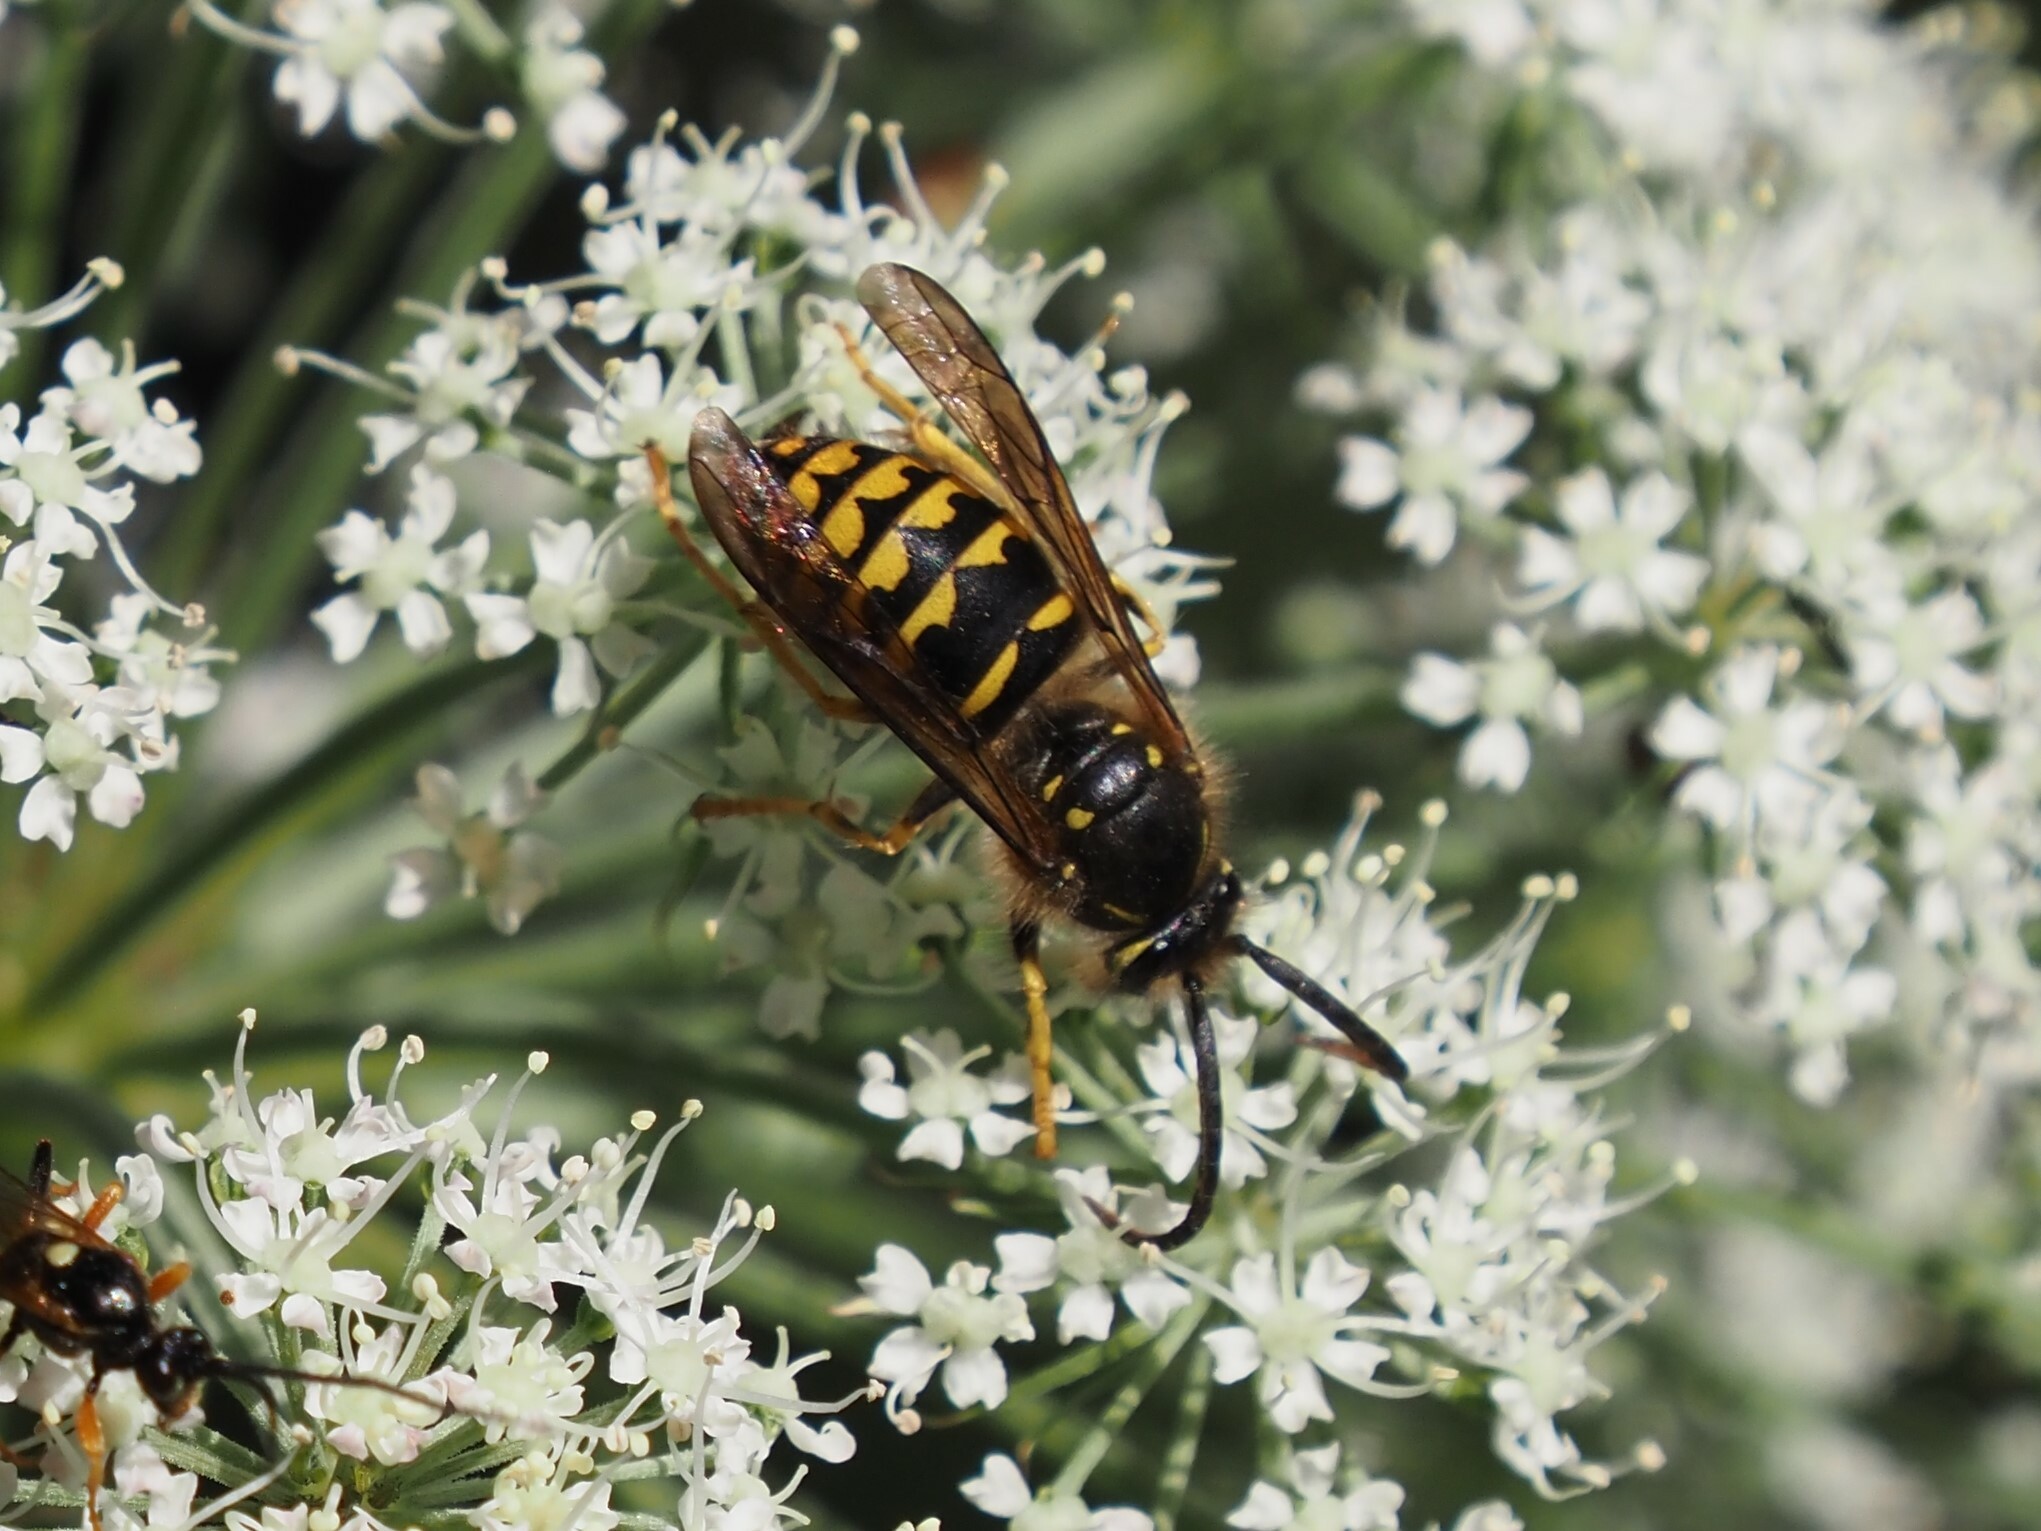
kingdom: Animalia
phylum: Arthropoda
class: Insecta
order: Hymenoptera
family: Vespidae
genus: Dolichovespula
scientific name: Dolichovespula arenaria
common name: Aerial yellowjacket
